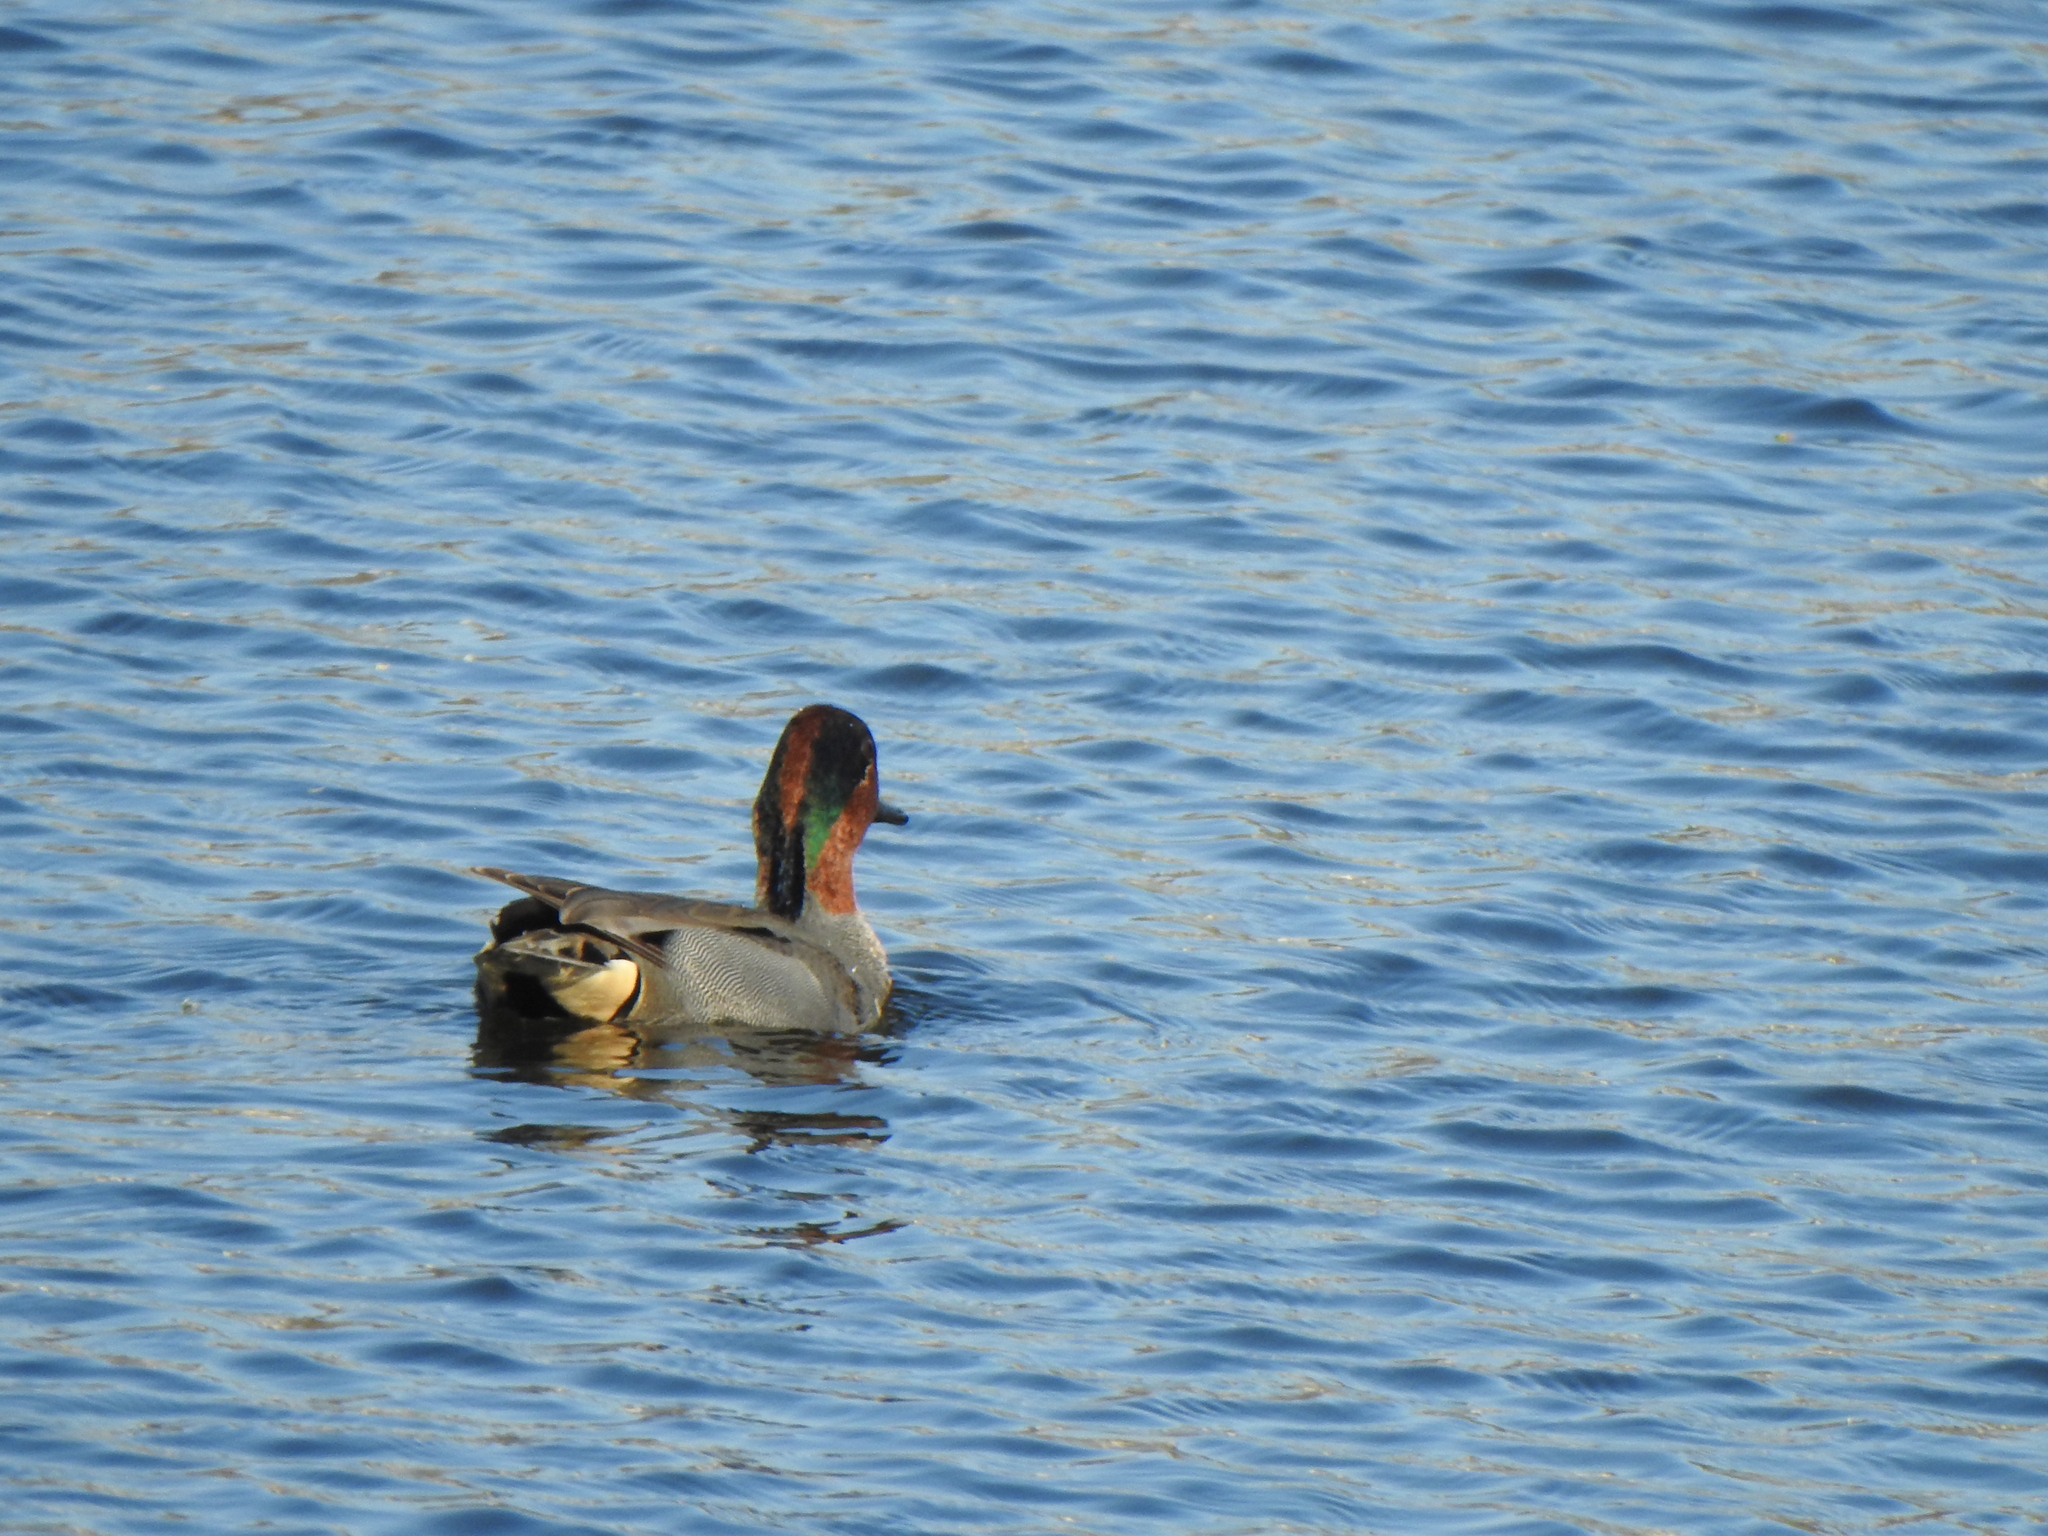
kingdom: Animalia
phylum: Chordata
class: Aves
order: Anseriformes
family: Anatidae
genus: Anas
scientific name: Anas crecca
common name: Eurasian teal
